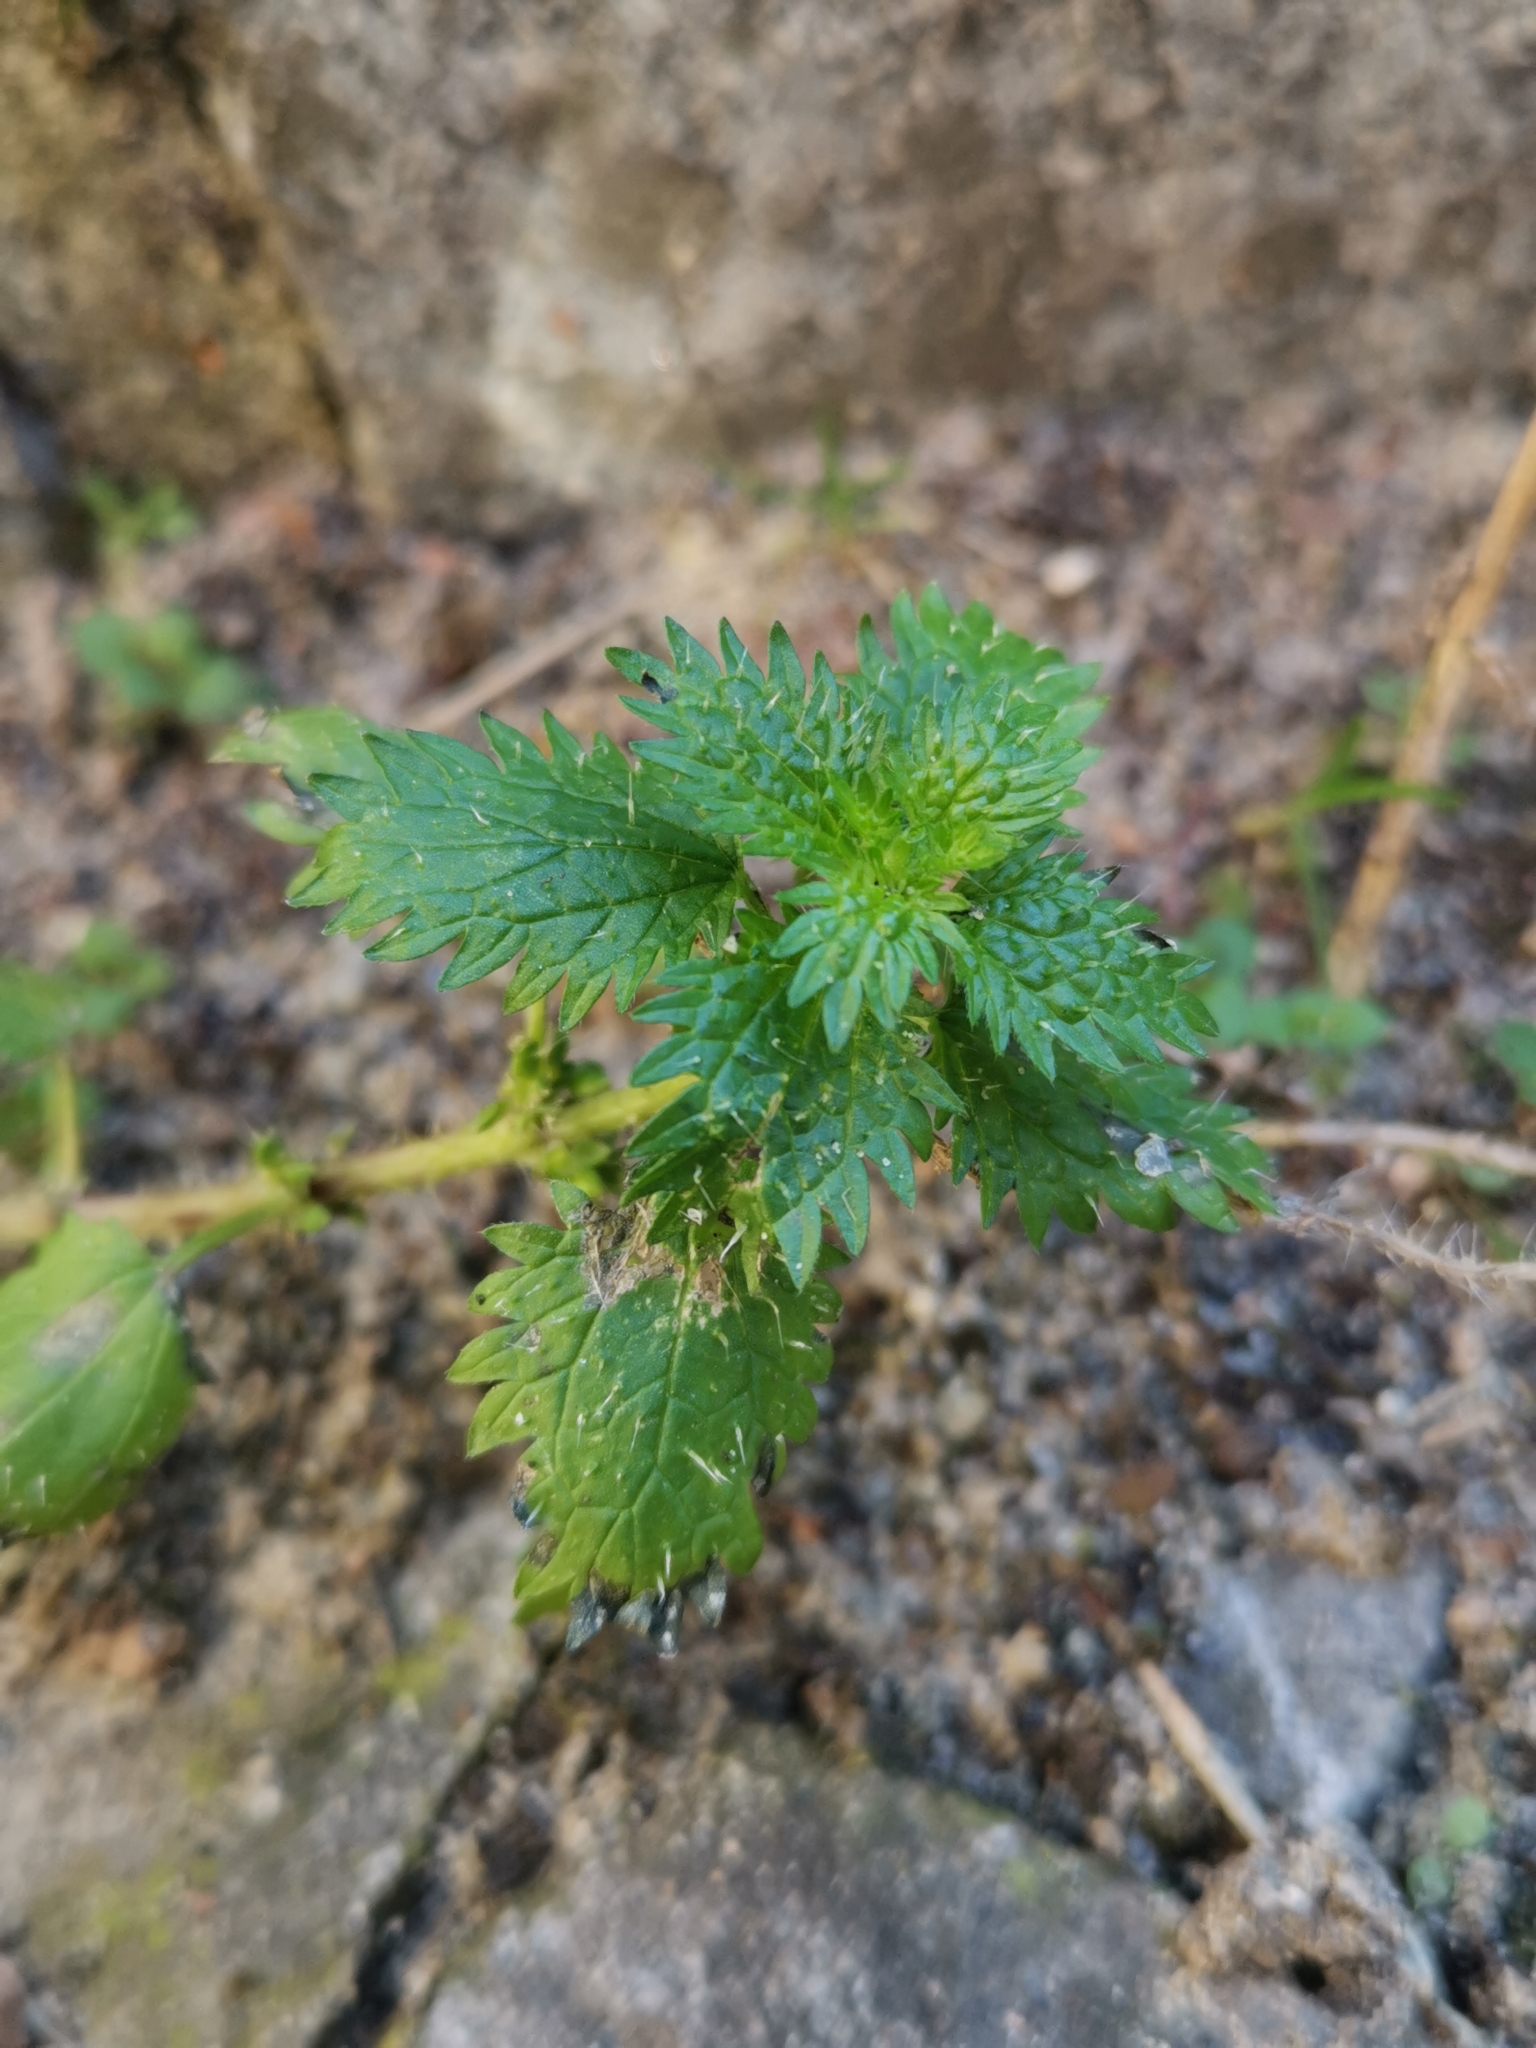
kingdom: Plantae
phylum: Tracheophyta
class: Magnoliopsida
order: Rosales
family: Urticaceae
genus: Urtica
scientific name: Urtica urens
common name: Dwarf nettle
